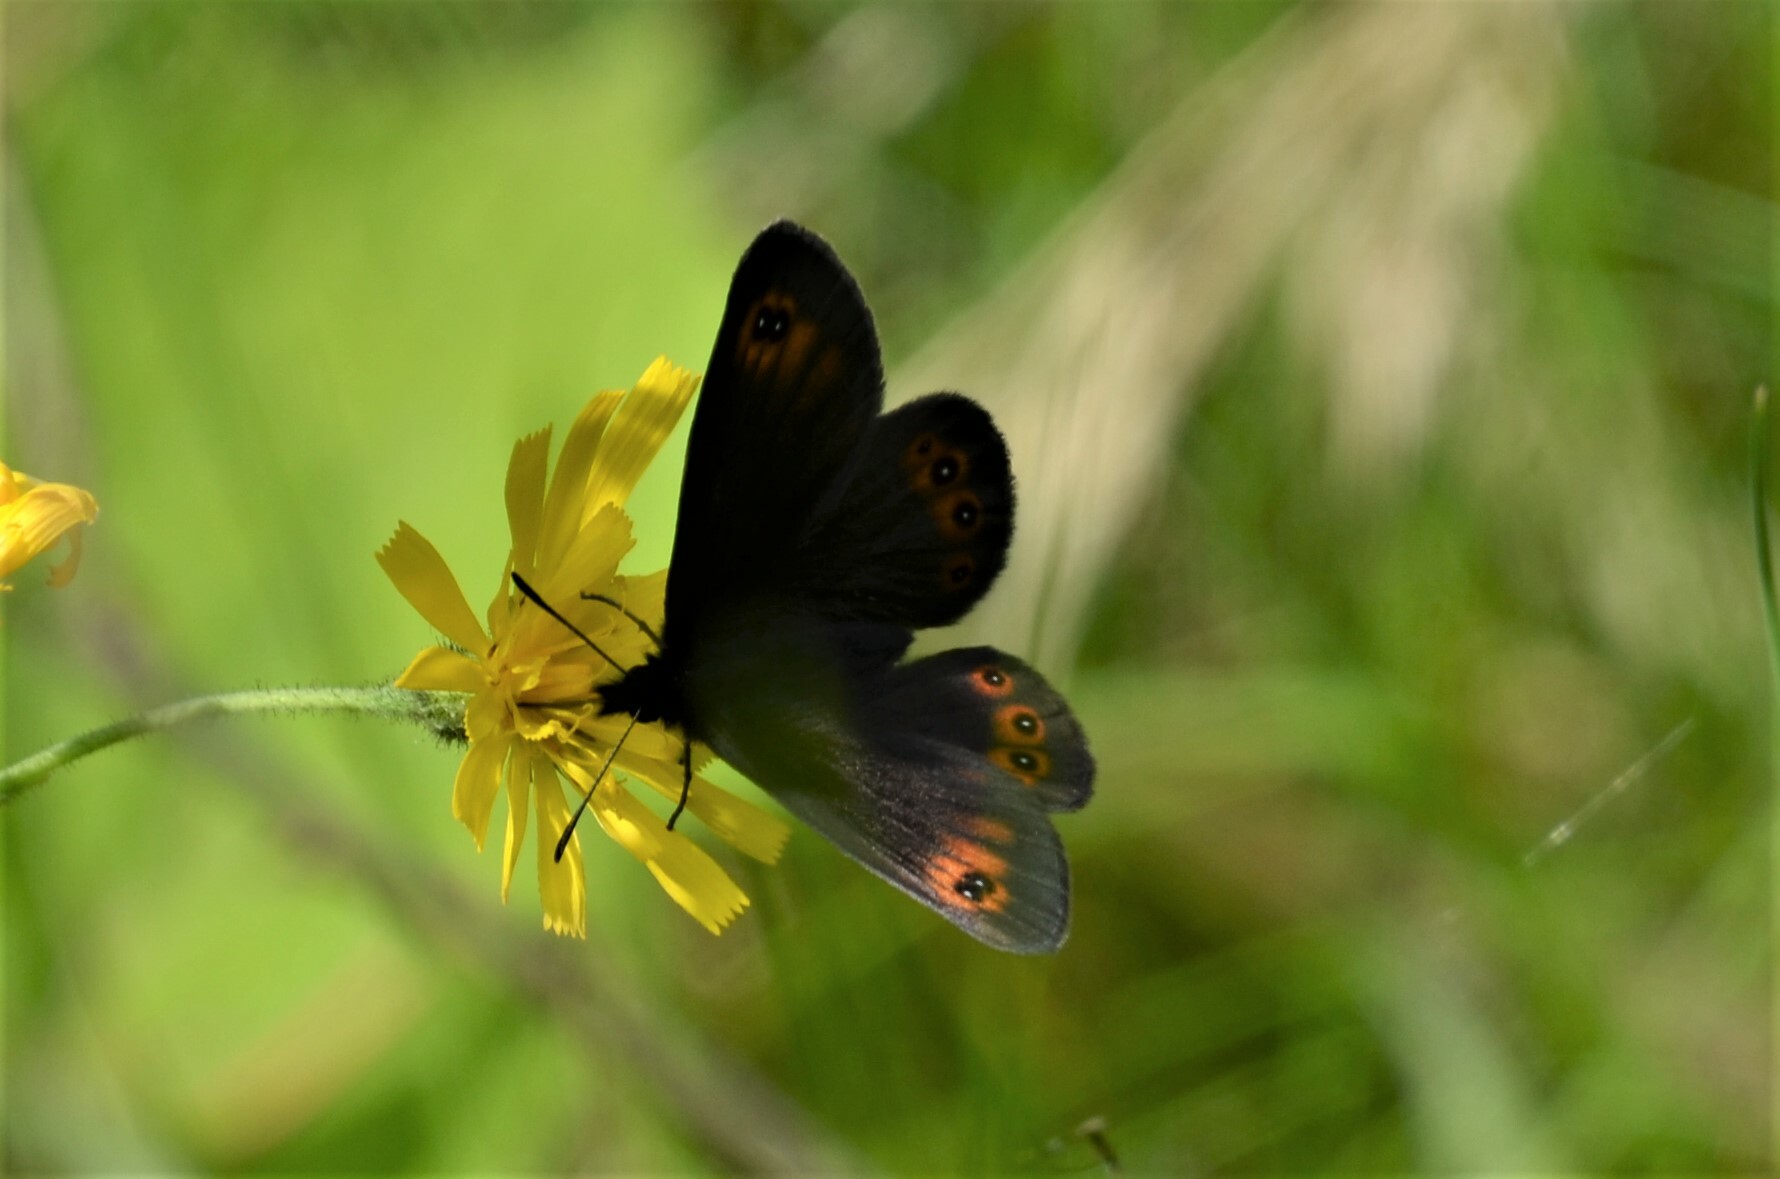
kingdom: Animalia
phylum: Arthropoda
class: Insecta
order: Lepidoptera
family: Nymphalidae
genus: Erebia
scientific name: Erebia medusa
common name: Woodland ringlet
